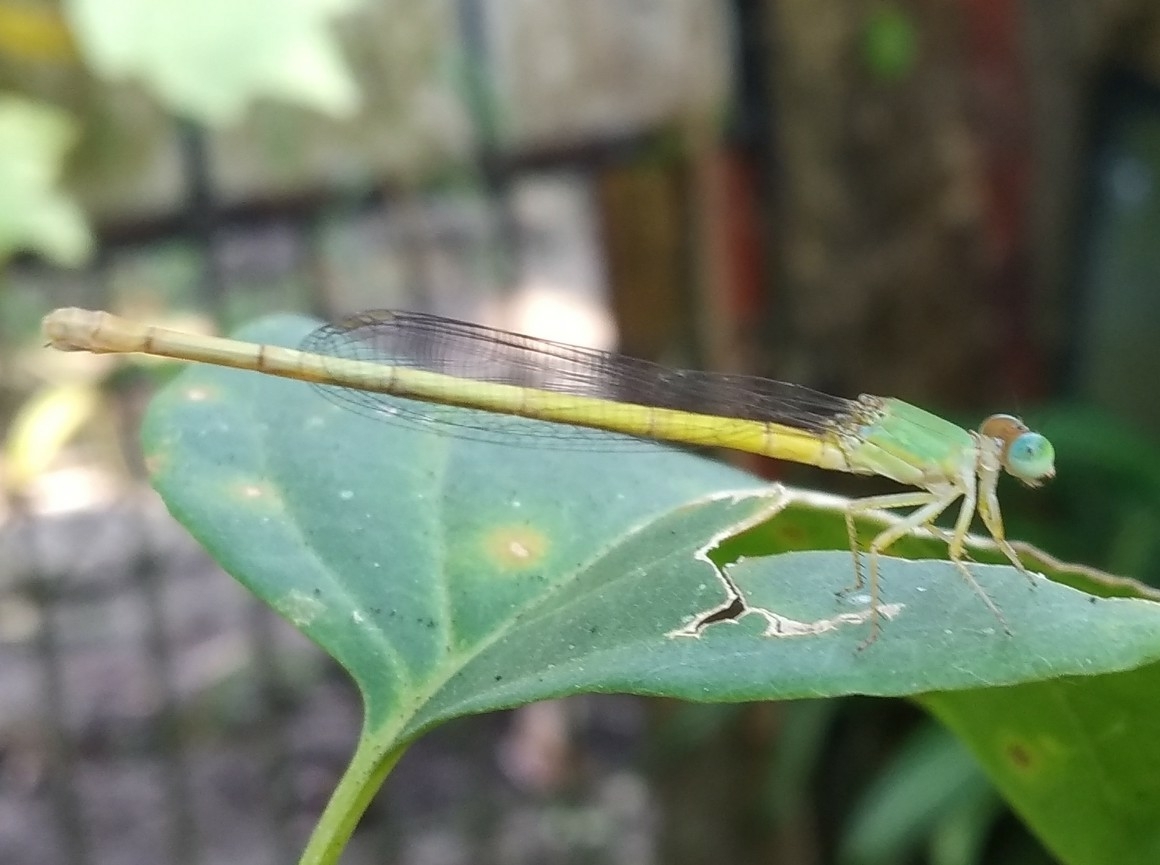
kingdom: Animalia
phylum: Arthropoda
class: Insecta
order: Odonata
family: Coenagrionidae
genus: Ceriagrion
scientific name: Ceriagrion coromandelianum
